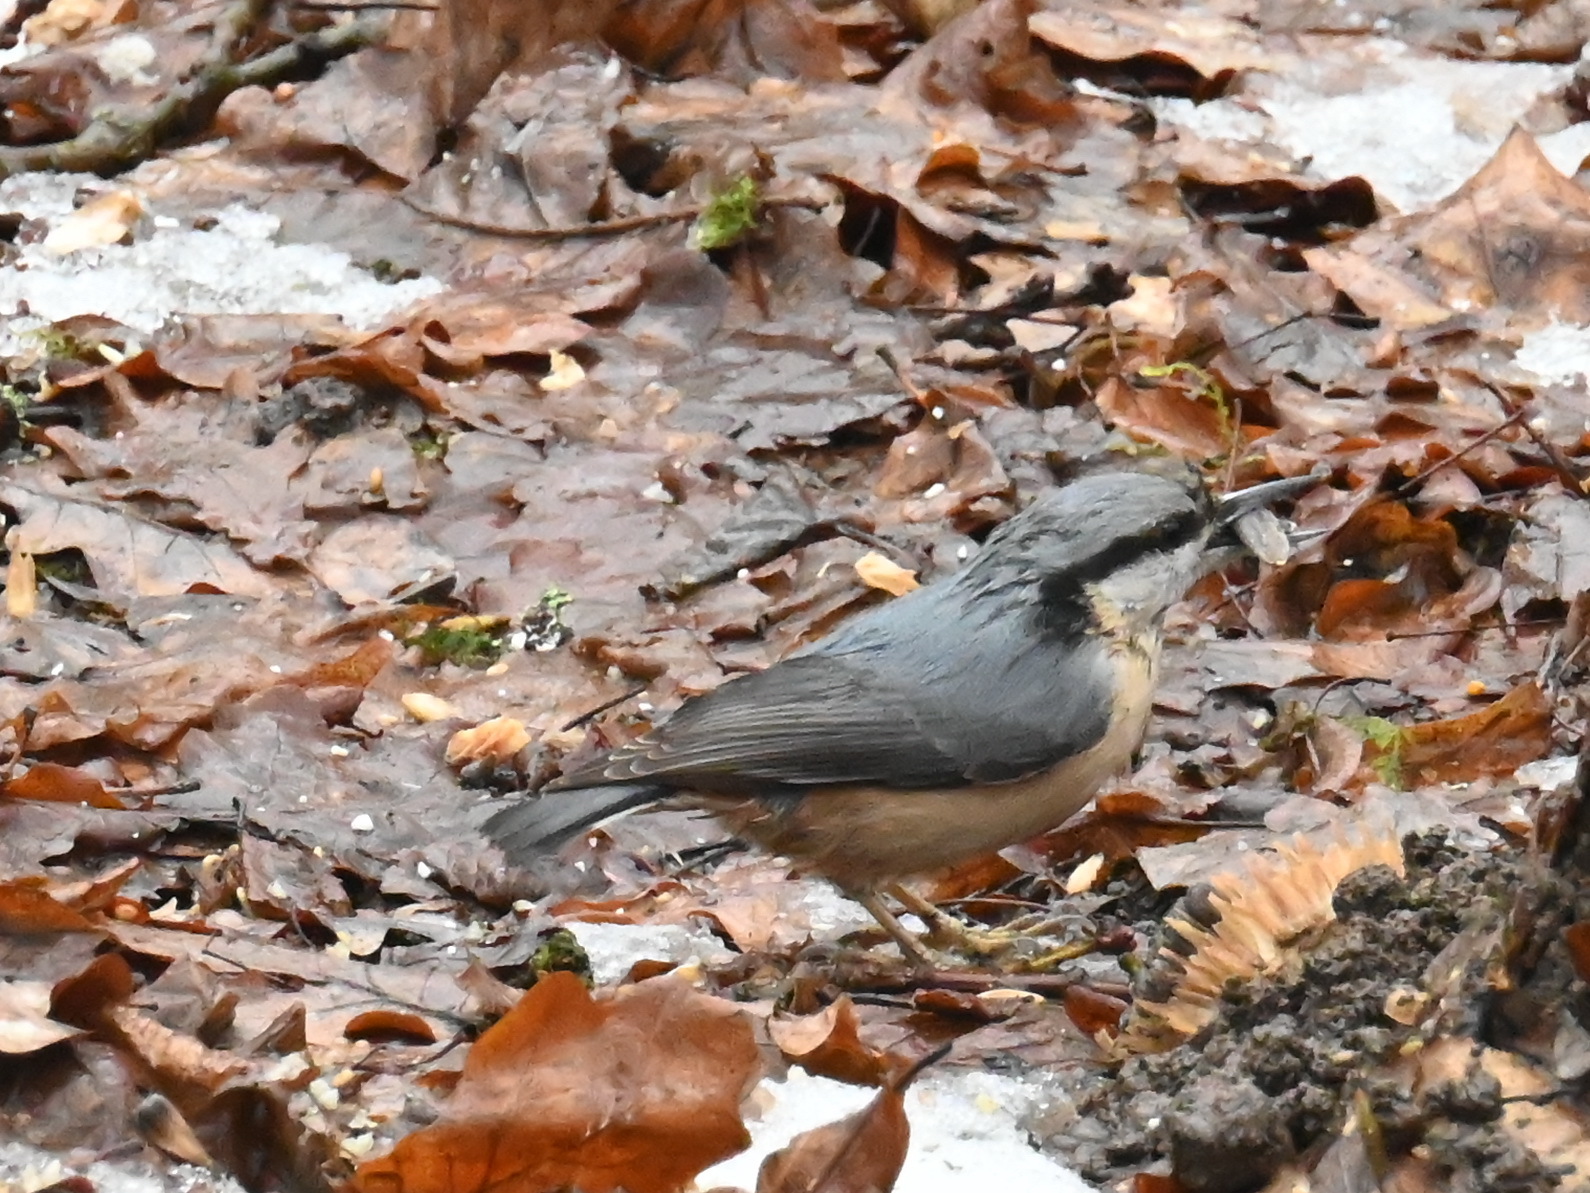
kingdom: Animalia
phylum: Chordata
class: Aves
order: Passeriformes
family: Sittidae
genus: Sitta
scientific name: Sitta europaea
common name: Eurasian nuthatch
